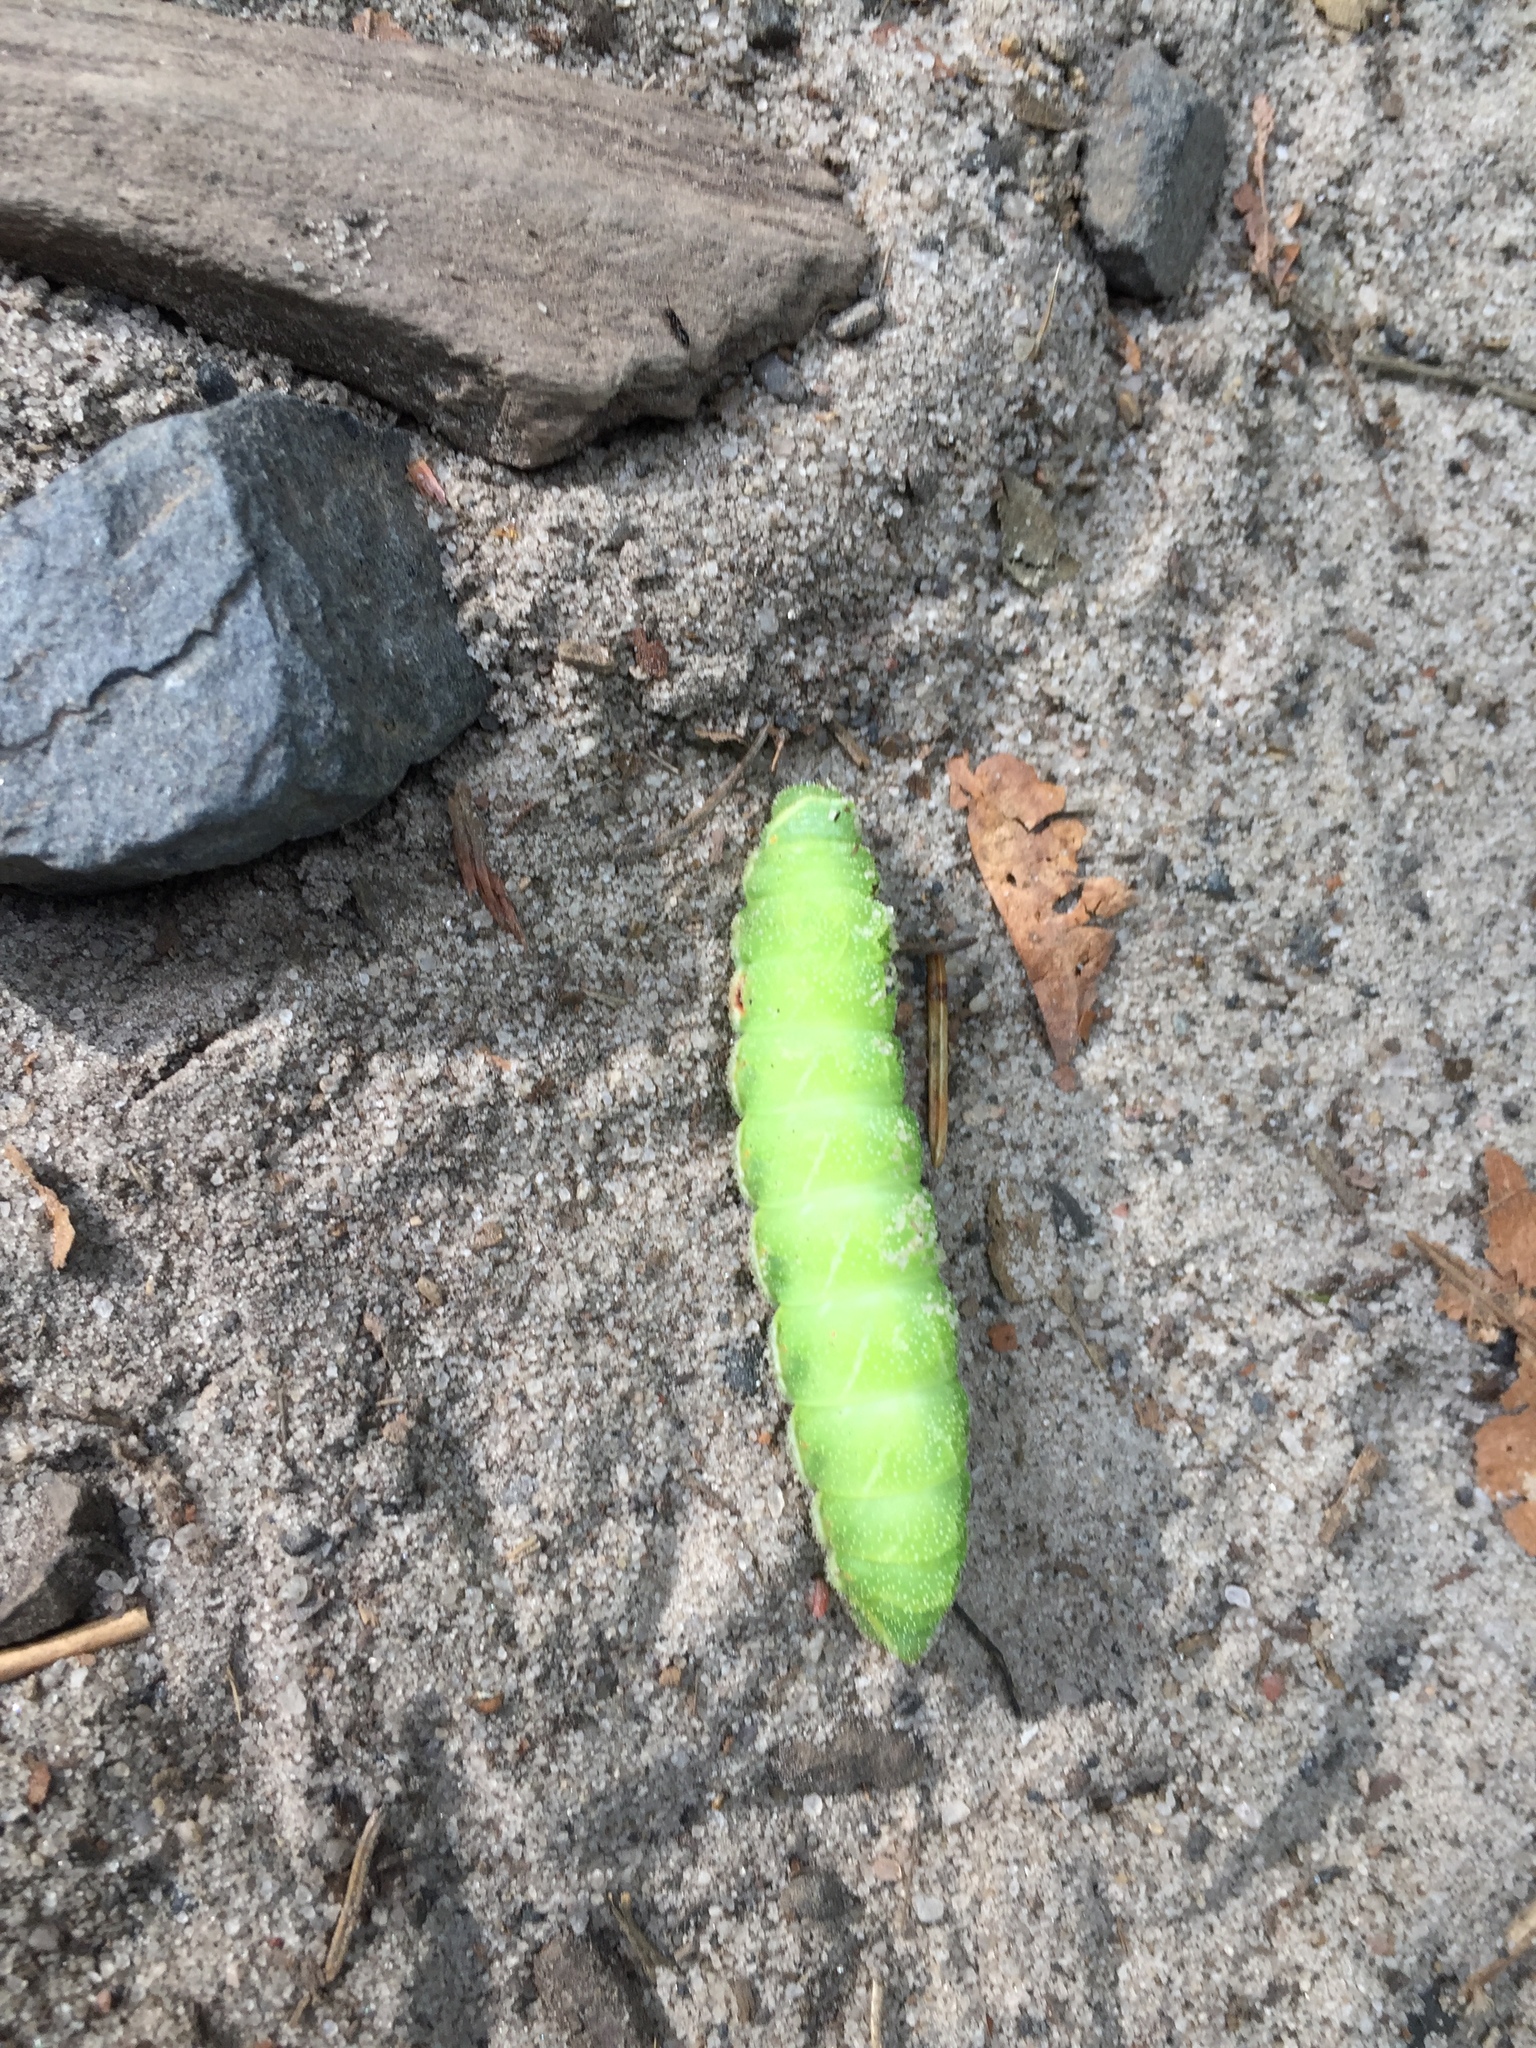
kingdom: Animalia
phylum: Arthropoda
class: Insecta
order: Lepidoptera
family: Saturniidae
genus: Aglia
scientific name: Aglia tau
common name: Tau emperor
